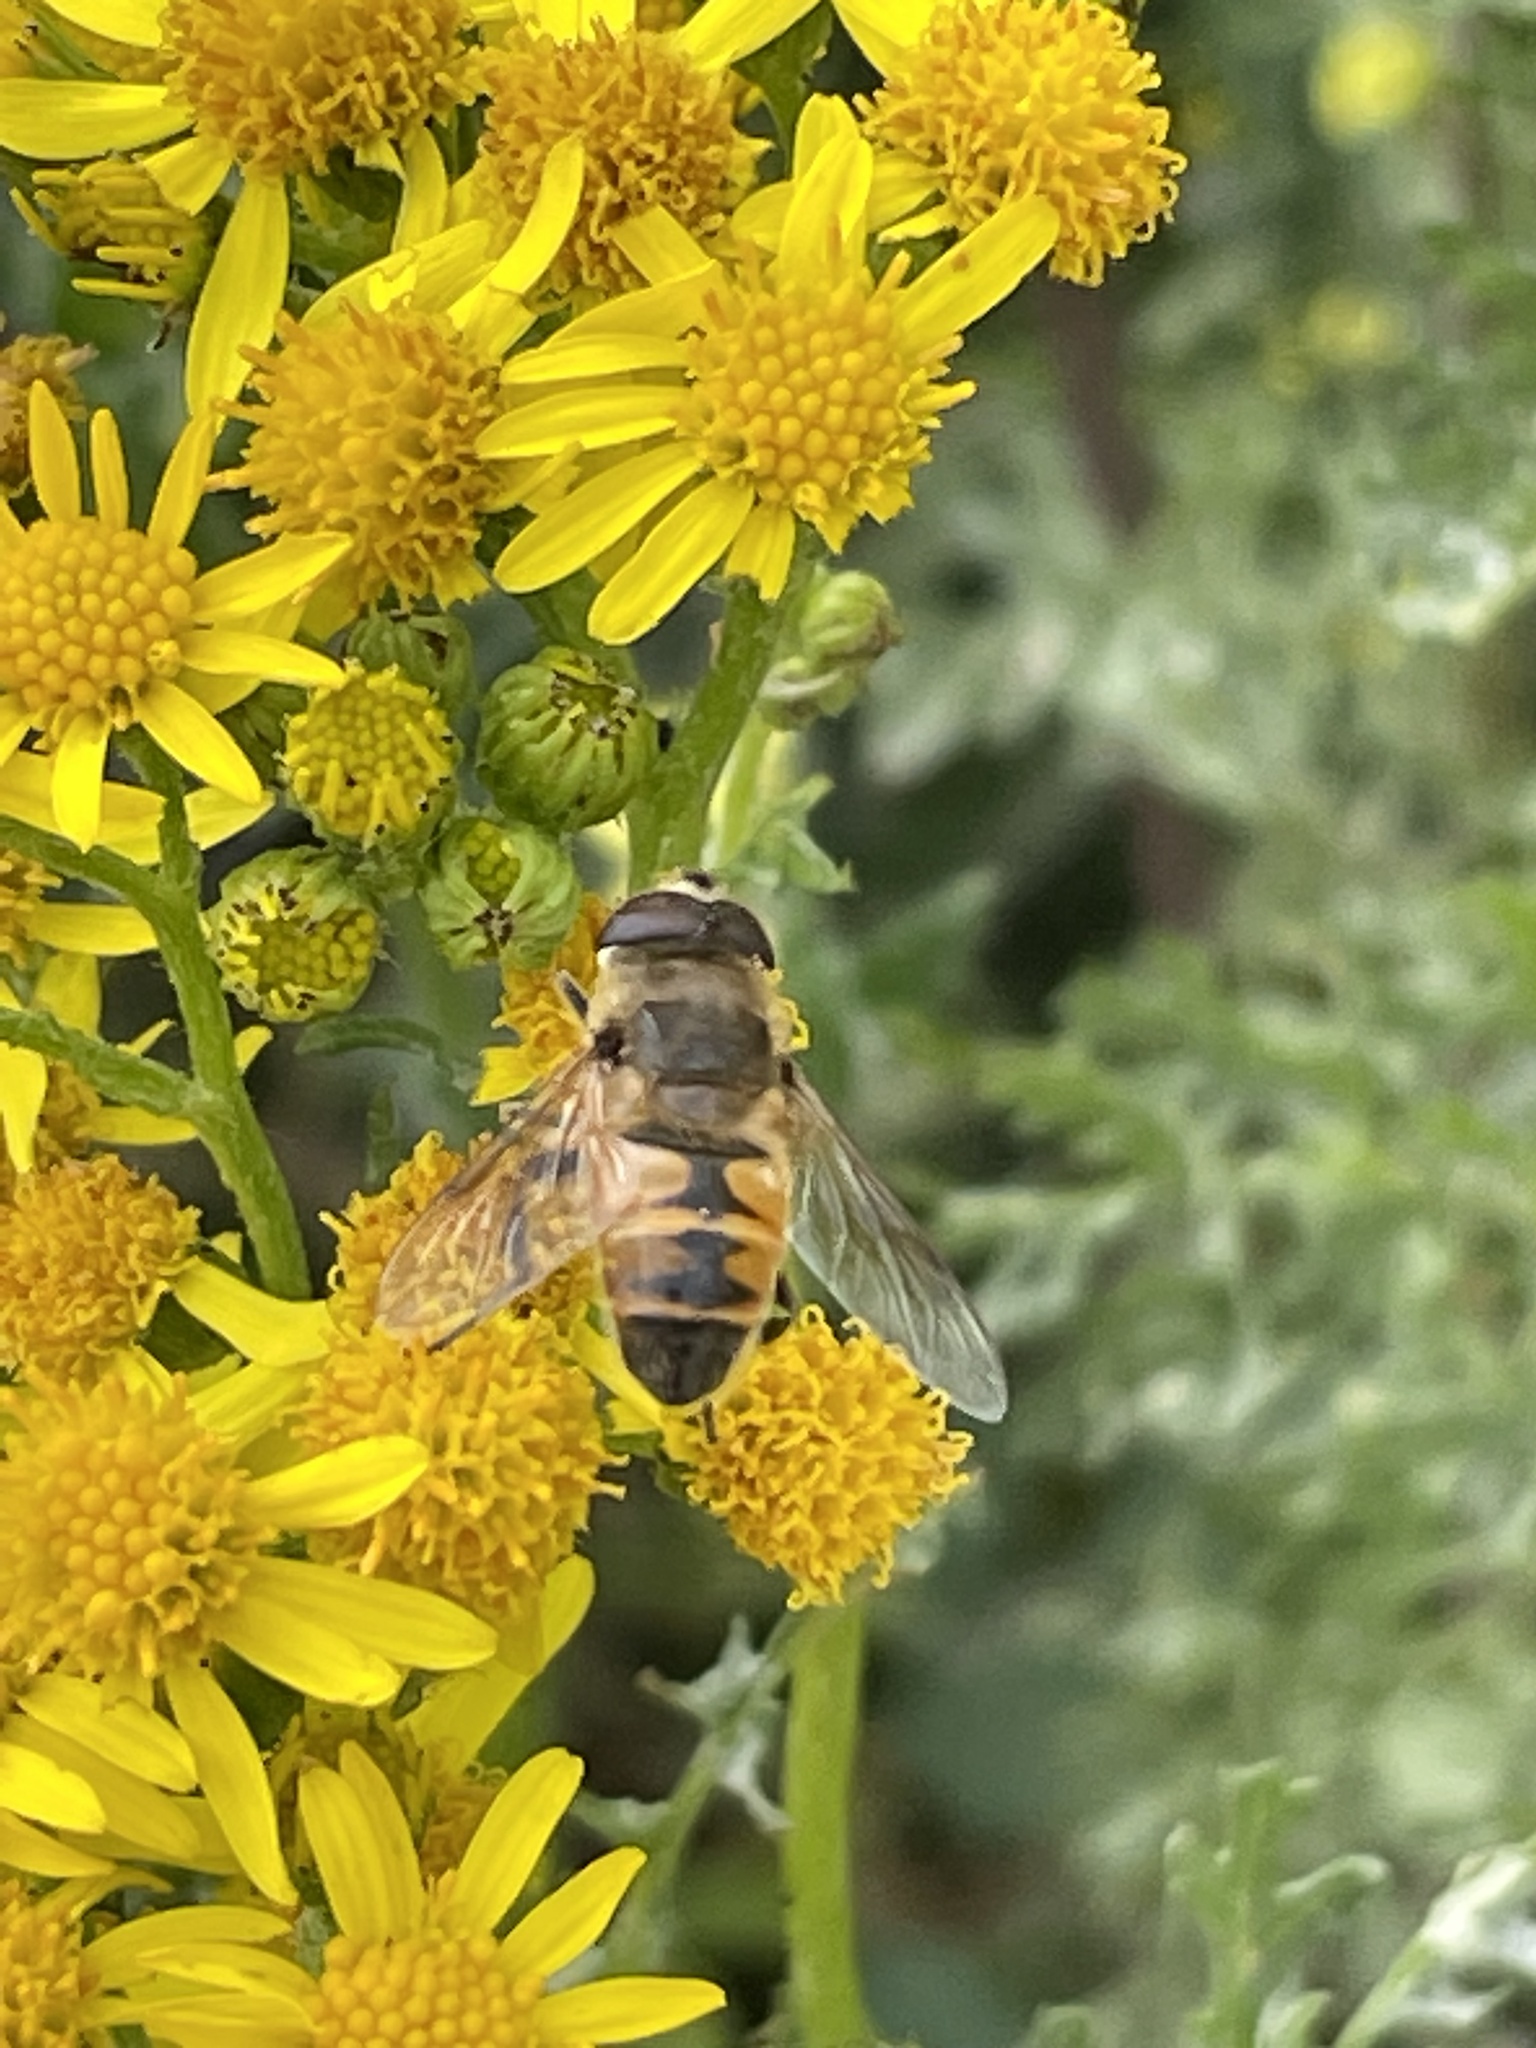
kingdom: Animalia
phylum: Arthropoda
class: Insecta
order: Diptera
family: Syrphidae
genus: Eristalis
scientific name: Eristalis tenax
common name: Drone fly
